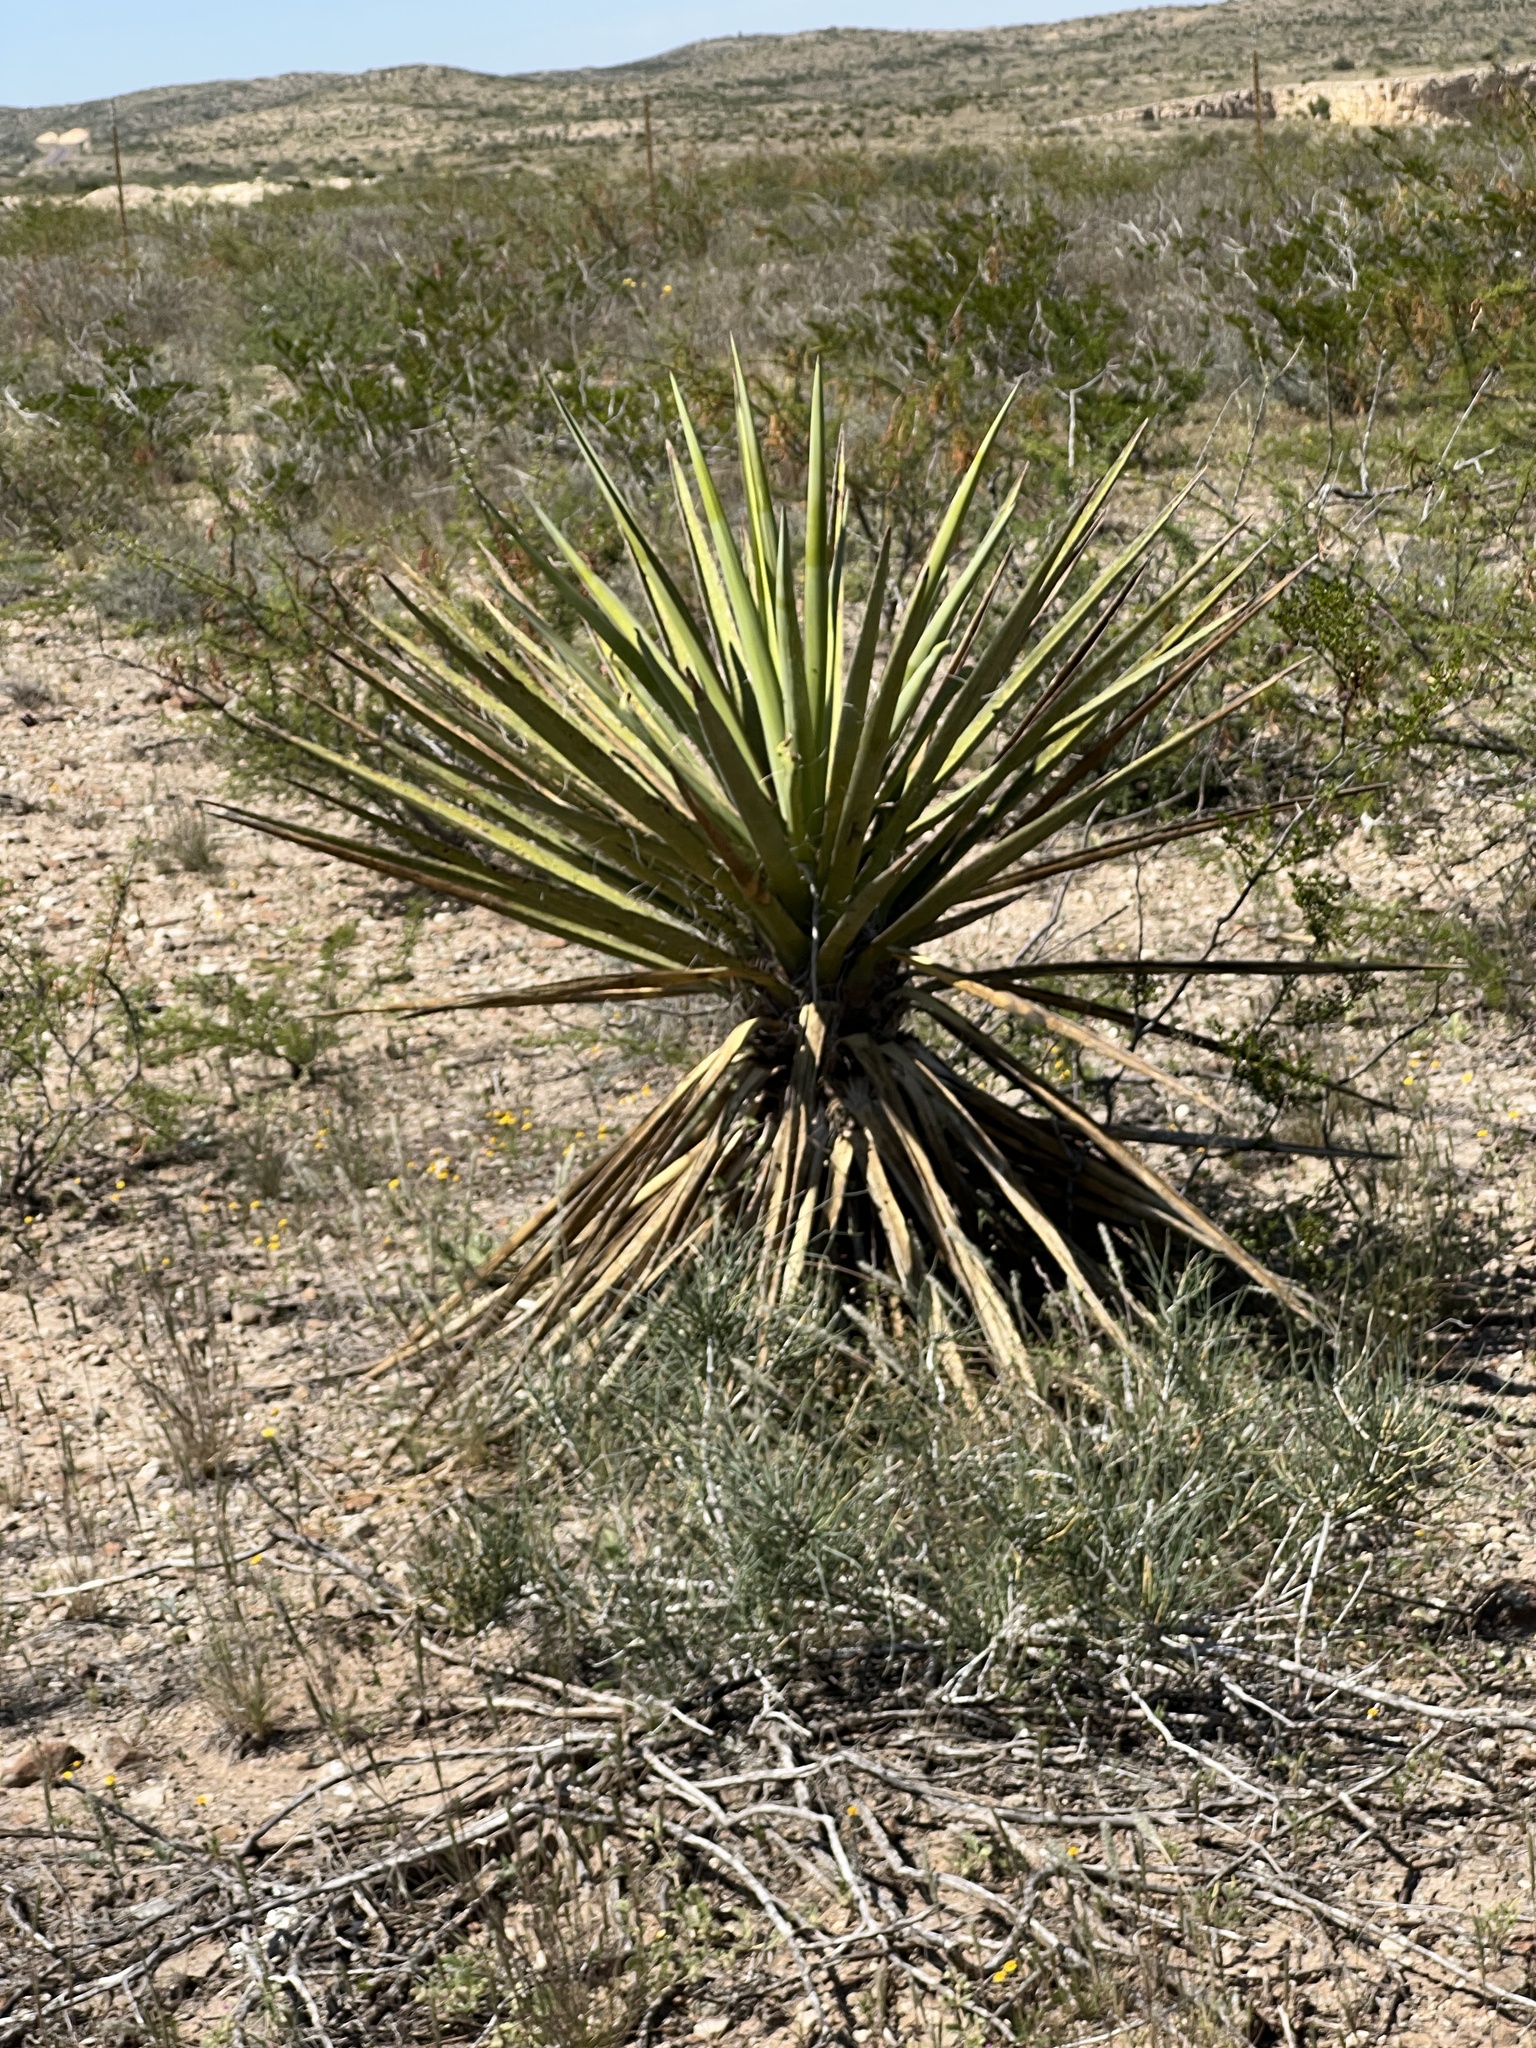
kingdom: Plantae
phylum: Tracheophyta
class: Liliopsida
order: Asparagales
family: Asparagaceae
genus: Yucca
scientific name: Yucca treculiana
